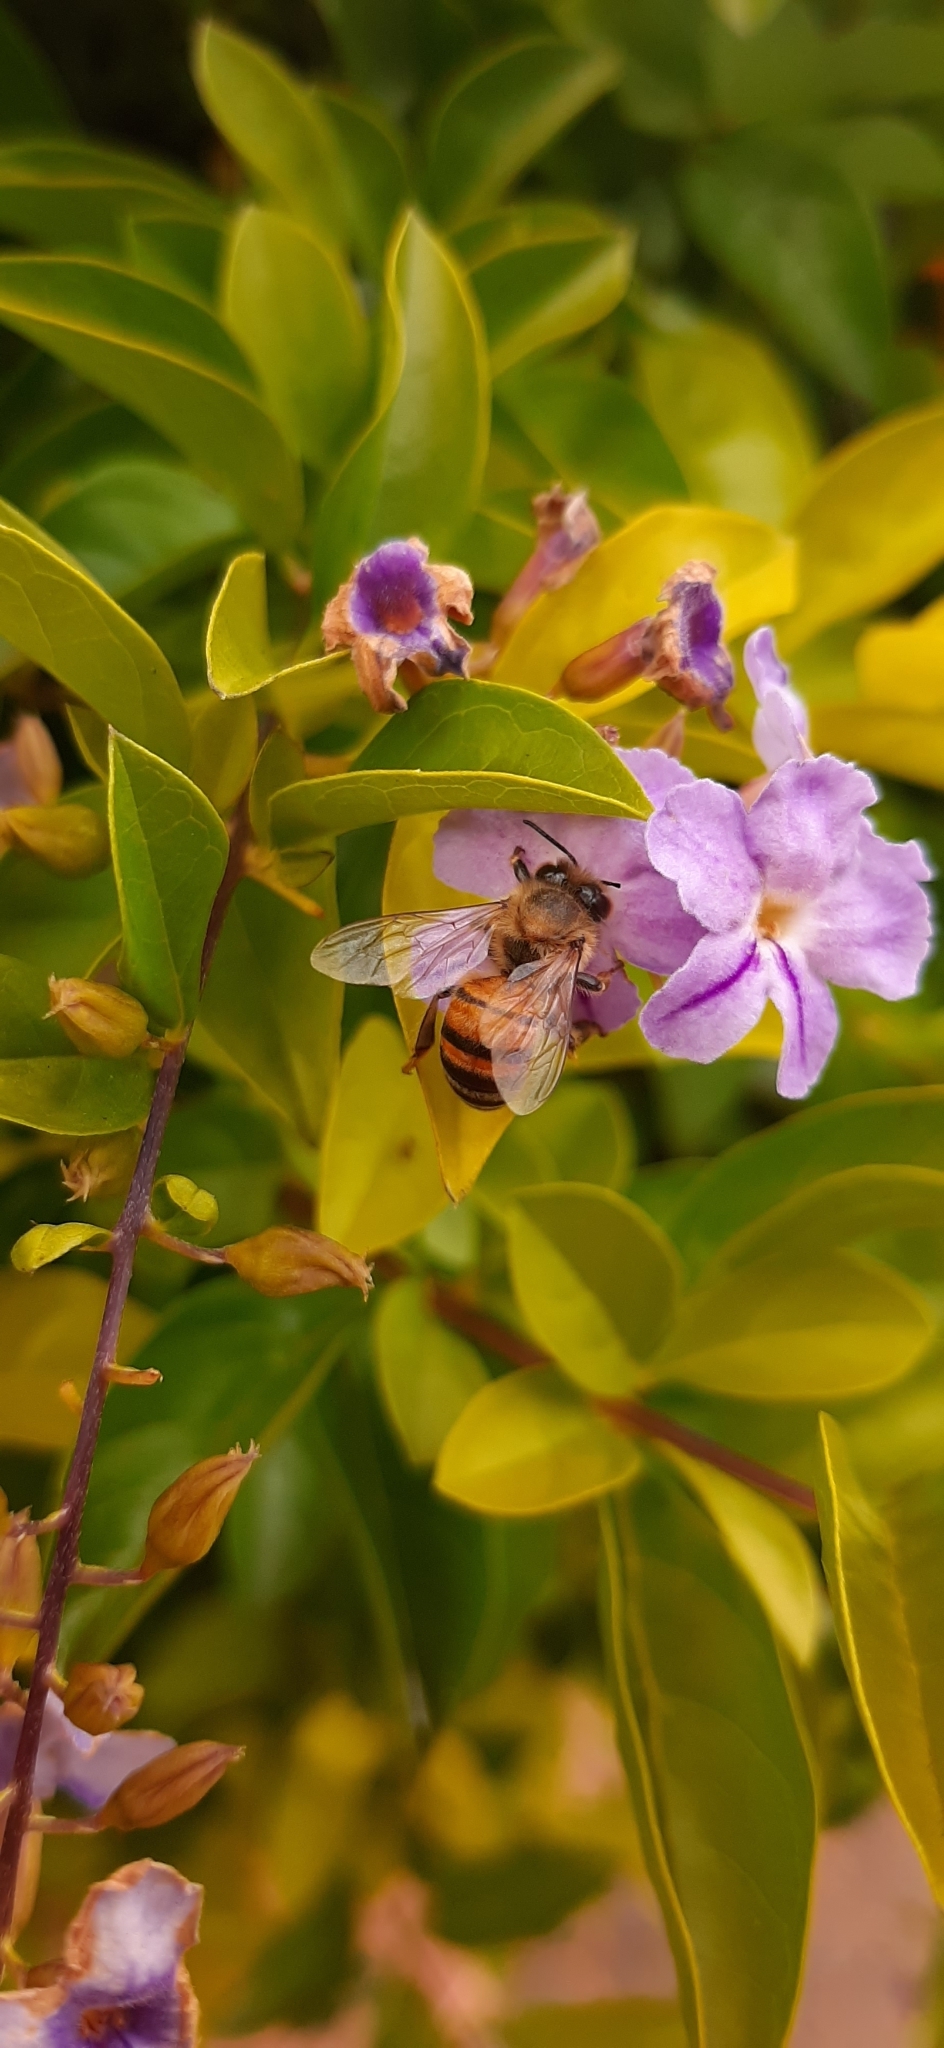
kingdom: Animalia
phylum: Arthropoda
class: Insecta
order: Hymenoptera
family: Apidae
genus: Apis
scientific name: Apis mellifera
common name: Honey bee
